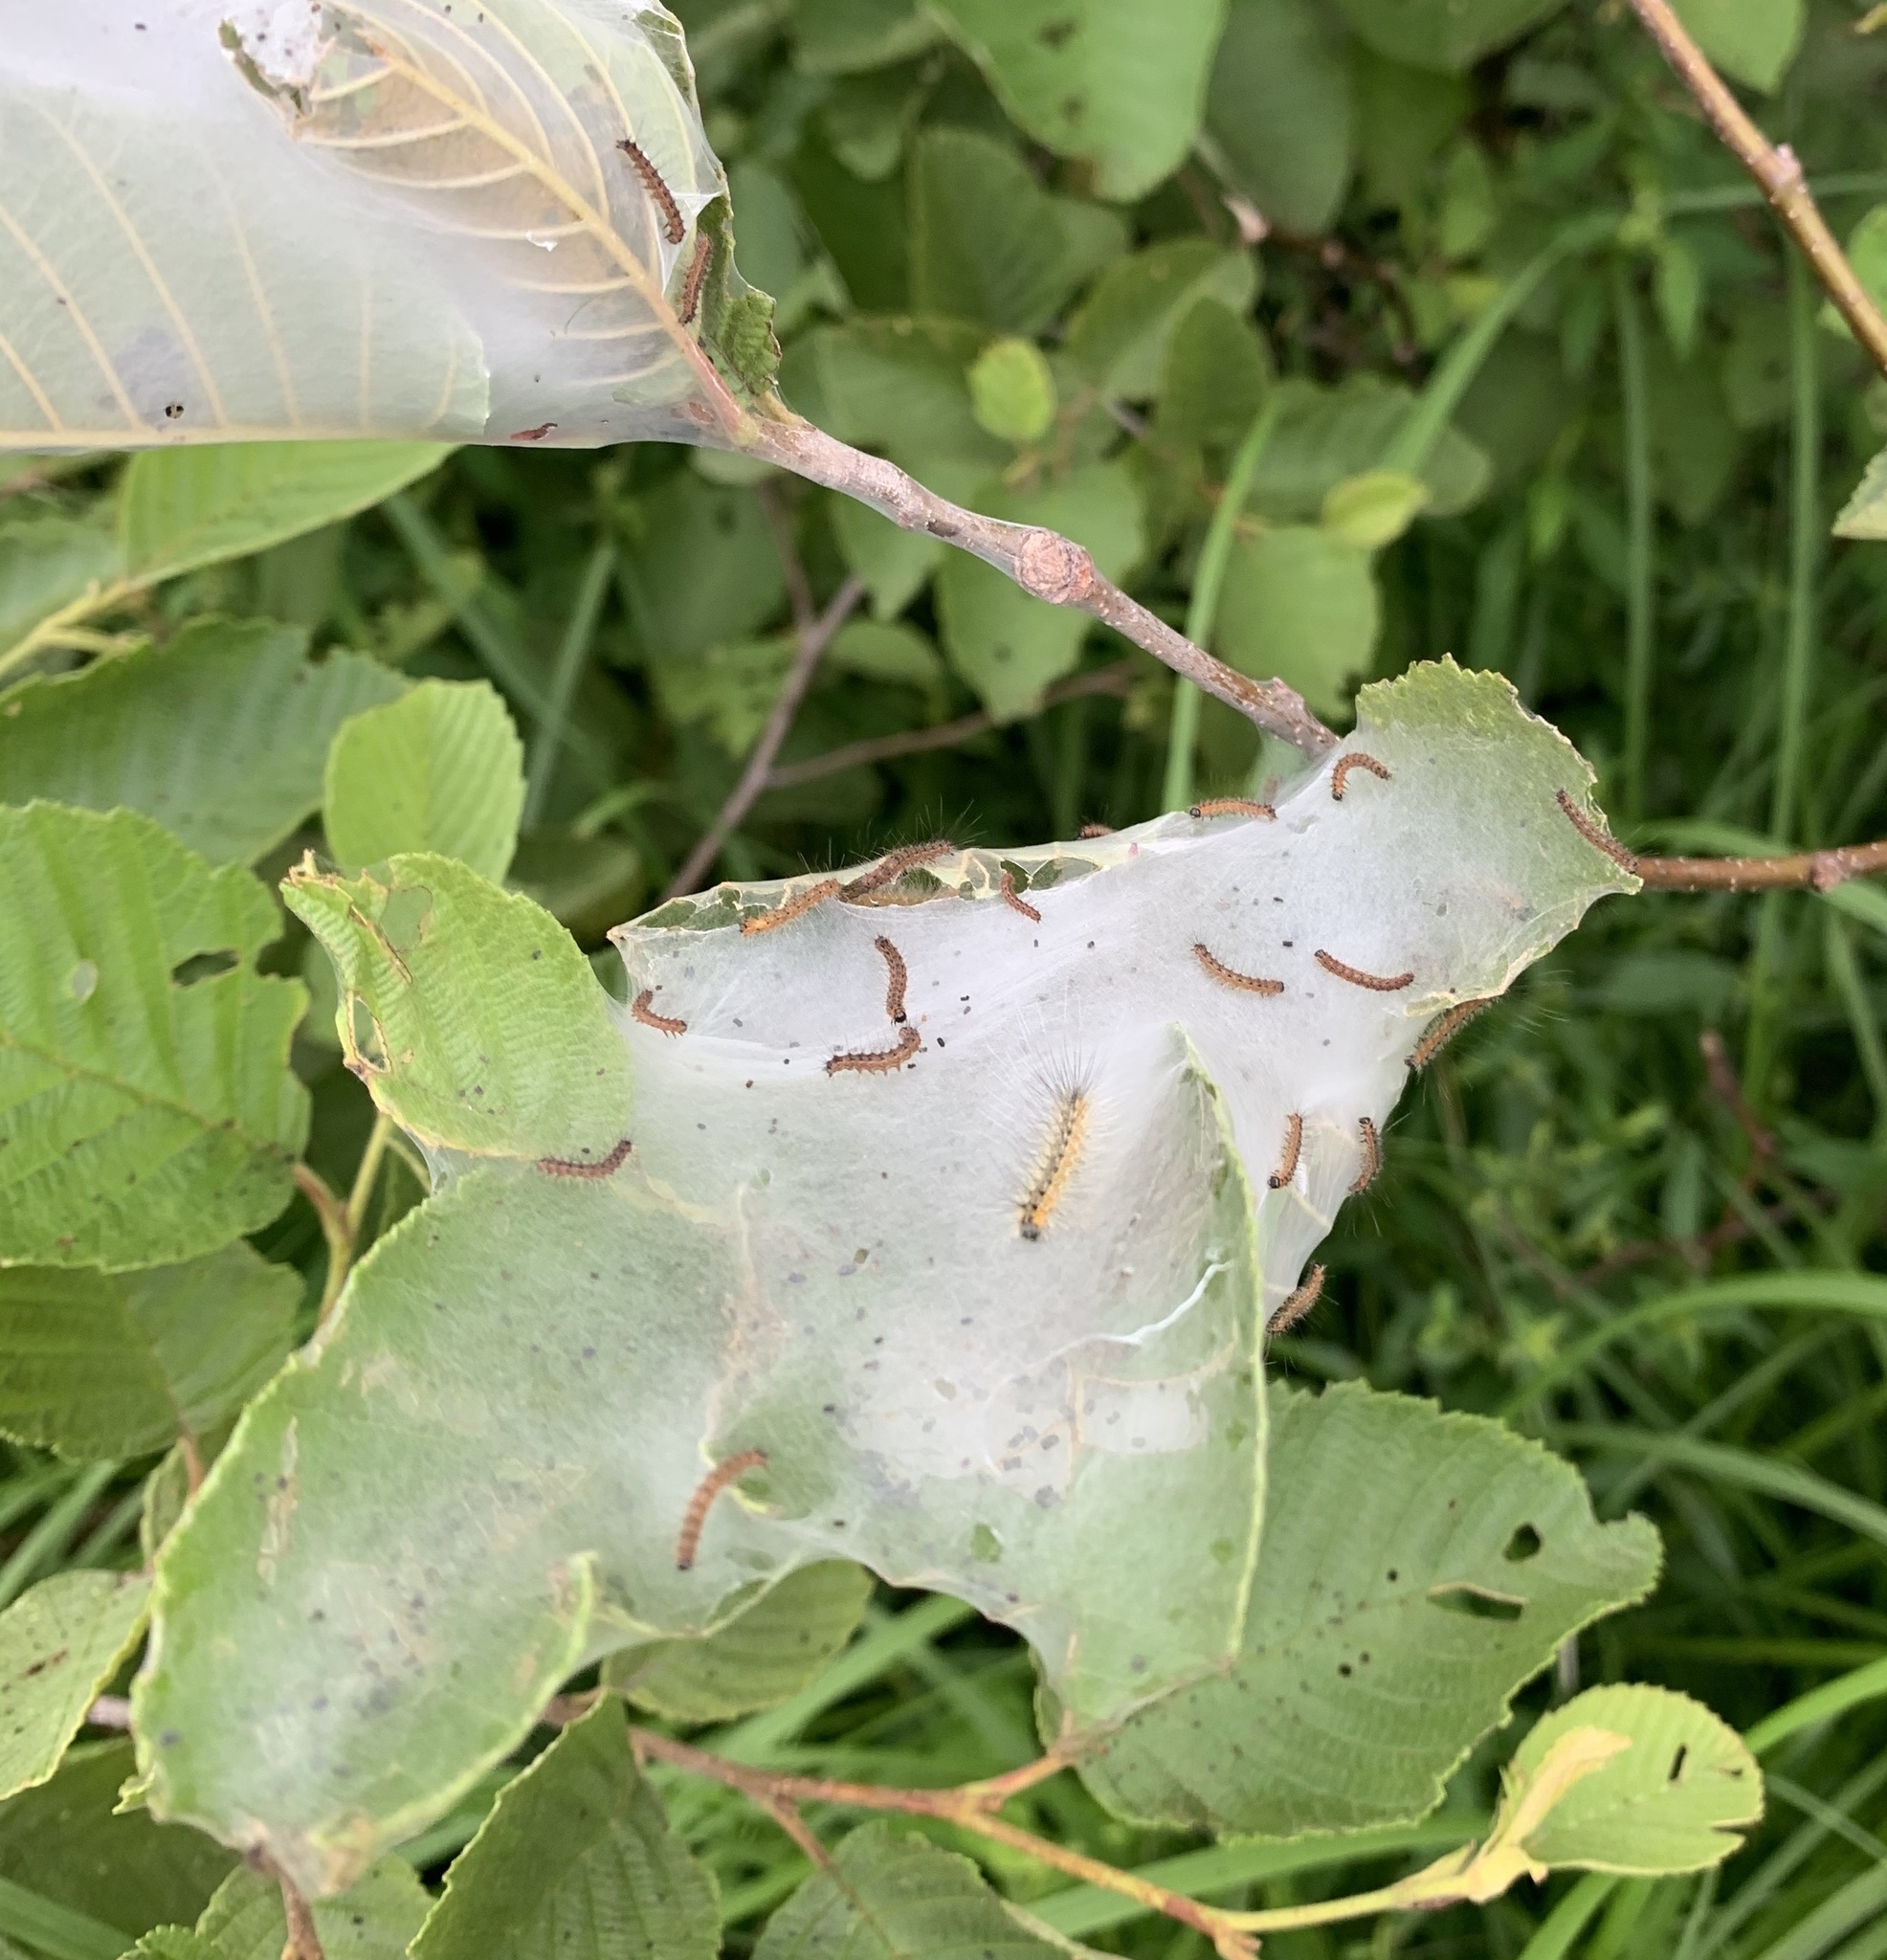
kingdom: Animalia
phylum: Arthropoda
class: Insecta
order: Lepidoptera
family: Erebidae
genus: Hyphantria
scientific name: Hyphantria cunea
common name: American white moth
